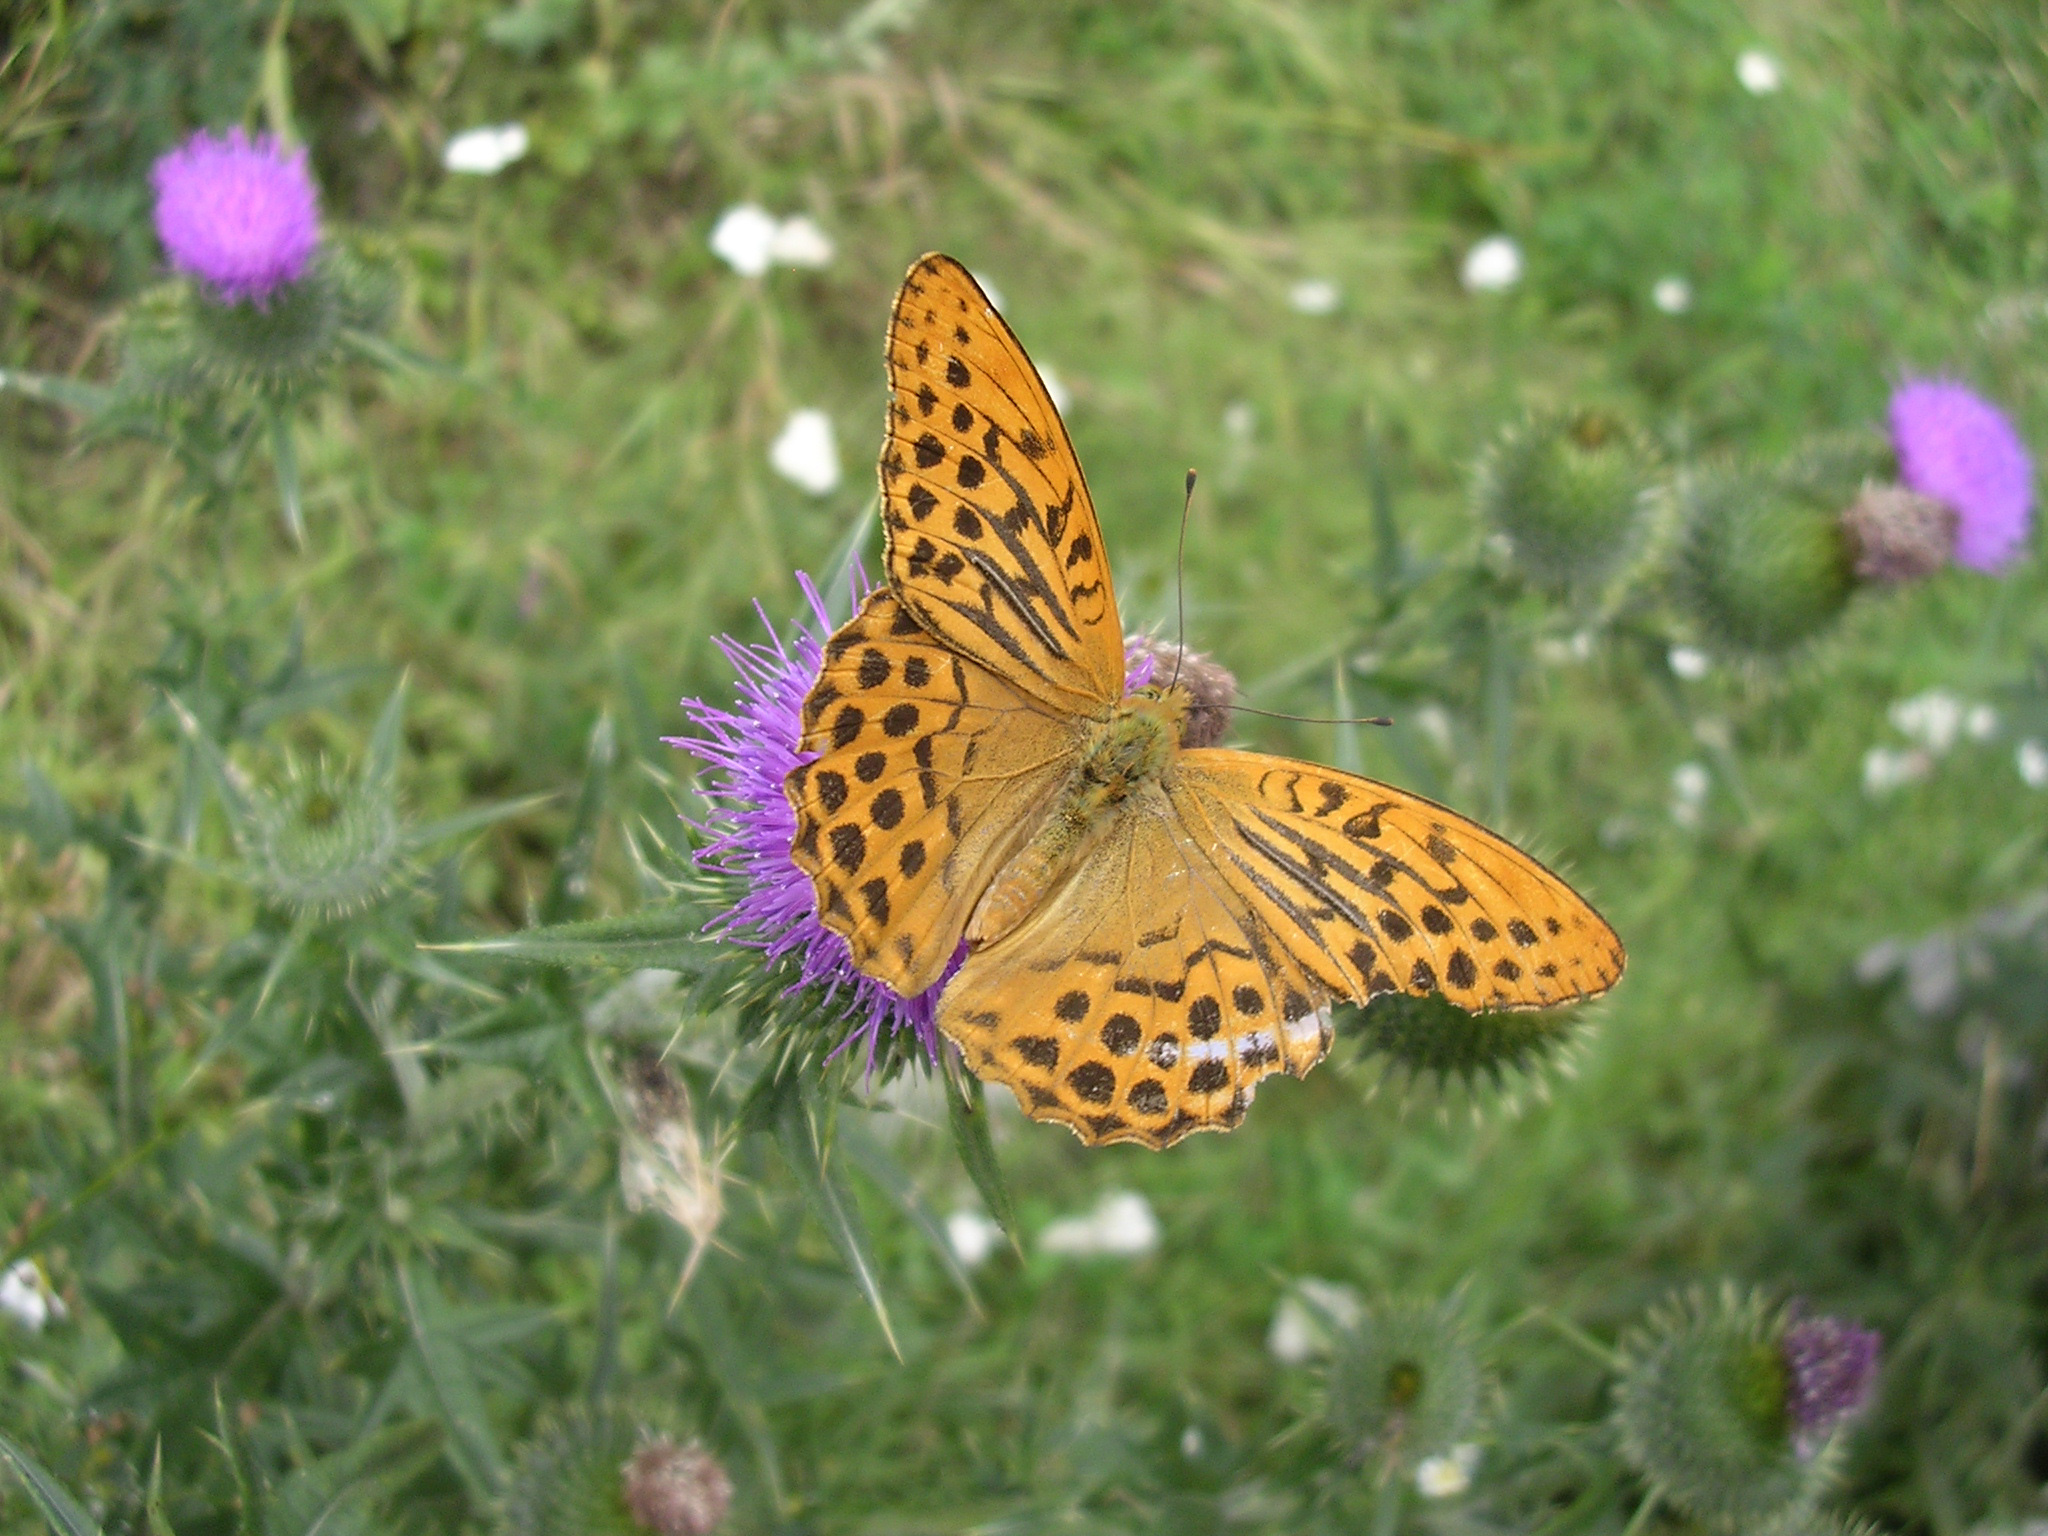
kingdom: Animalia
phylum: Arthropoda
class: Insecta
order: Lepidoptera
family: Nymphalidae
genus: Argynnis
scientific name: Argynnis paphia
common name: Silver-washed fritillary
